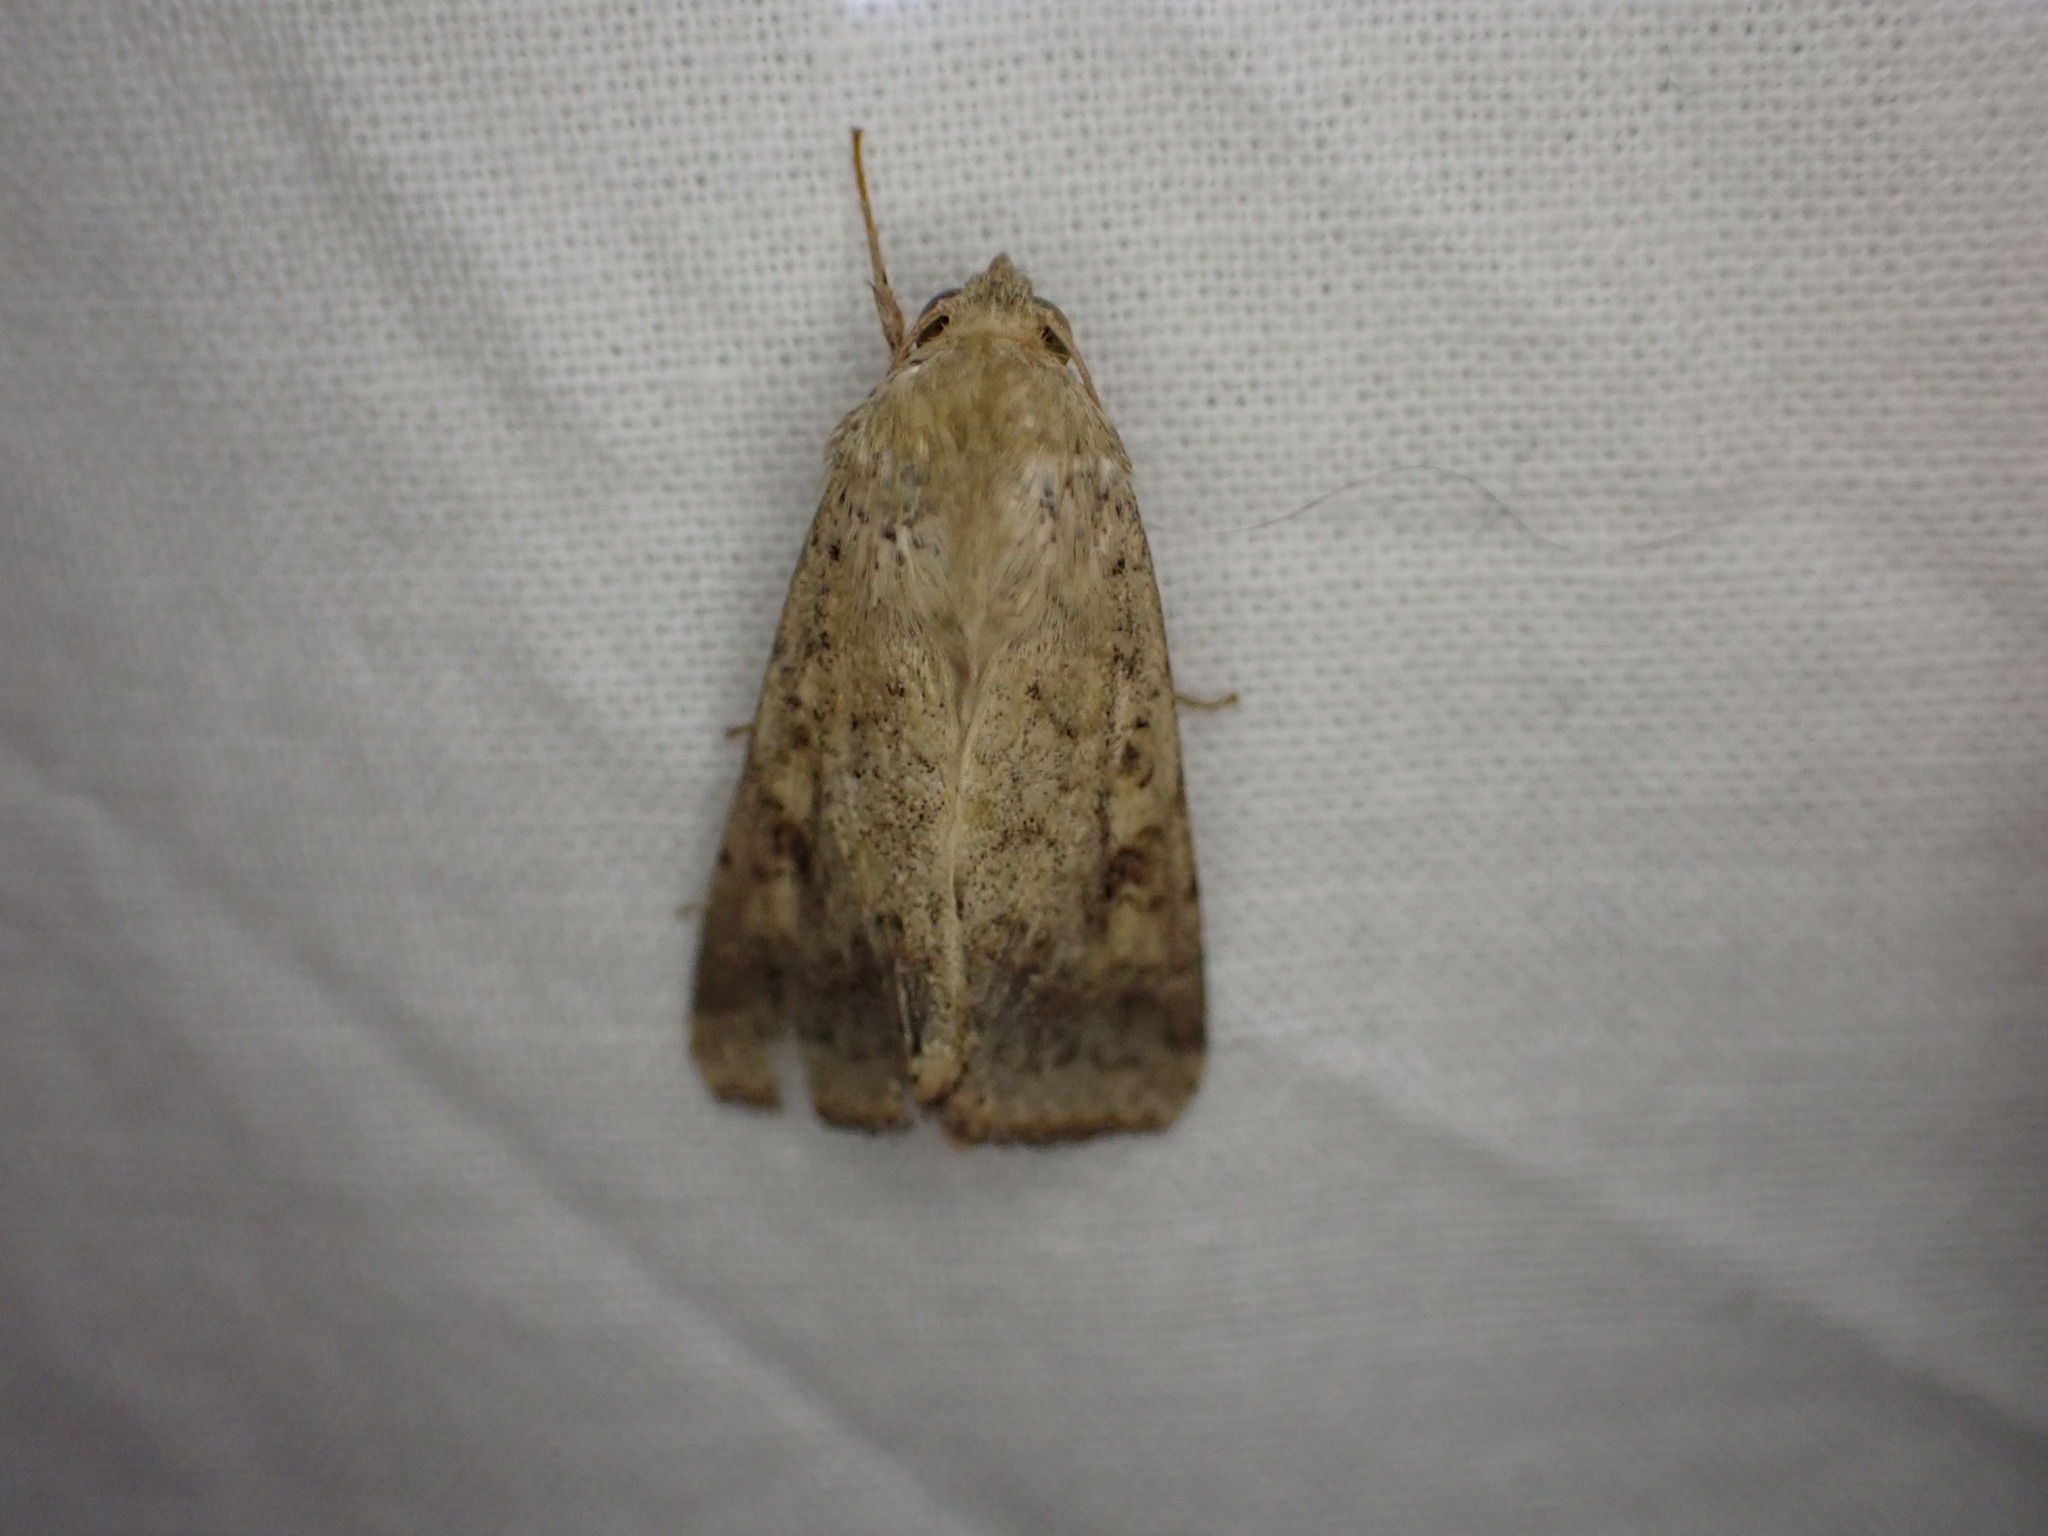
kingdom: Animalia
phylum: Arthropoda
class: Insecta
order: Lepidoptera
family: Noctuidae
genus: Helicoverpa
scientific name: Helicoverpa armigera
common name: Cotton bollworm
